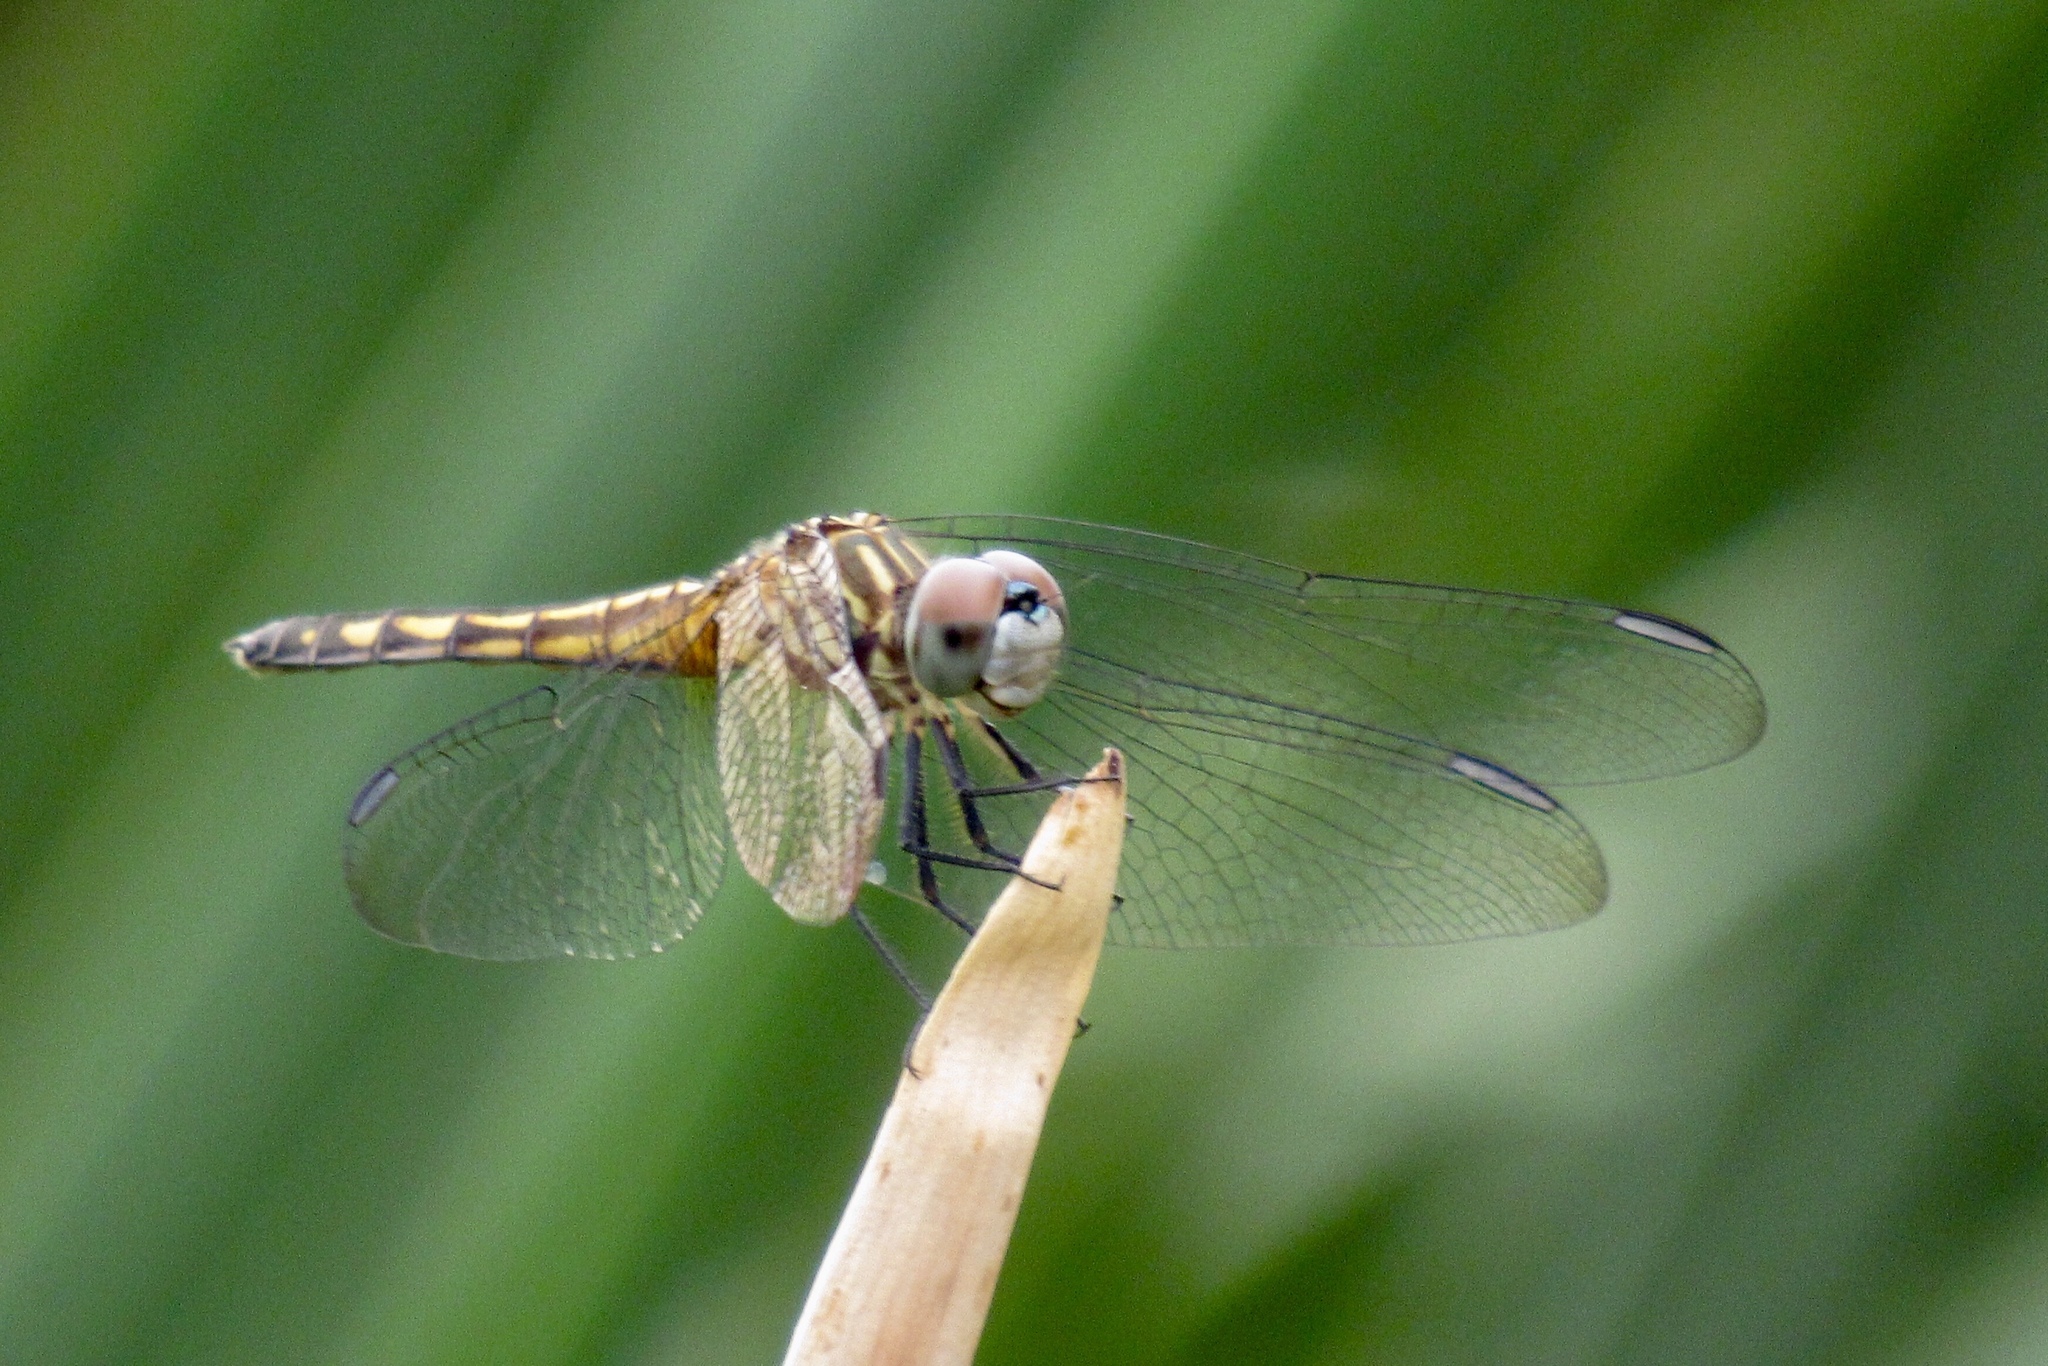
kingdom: Animalia
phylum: Arthropoda
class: Insecta
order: Odonata
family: Libellulidae
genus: Pachydiplax
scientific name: Pachydiplax longipennis
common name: Blue dasher
